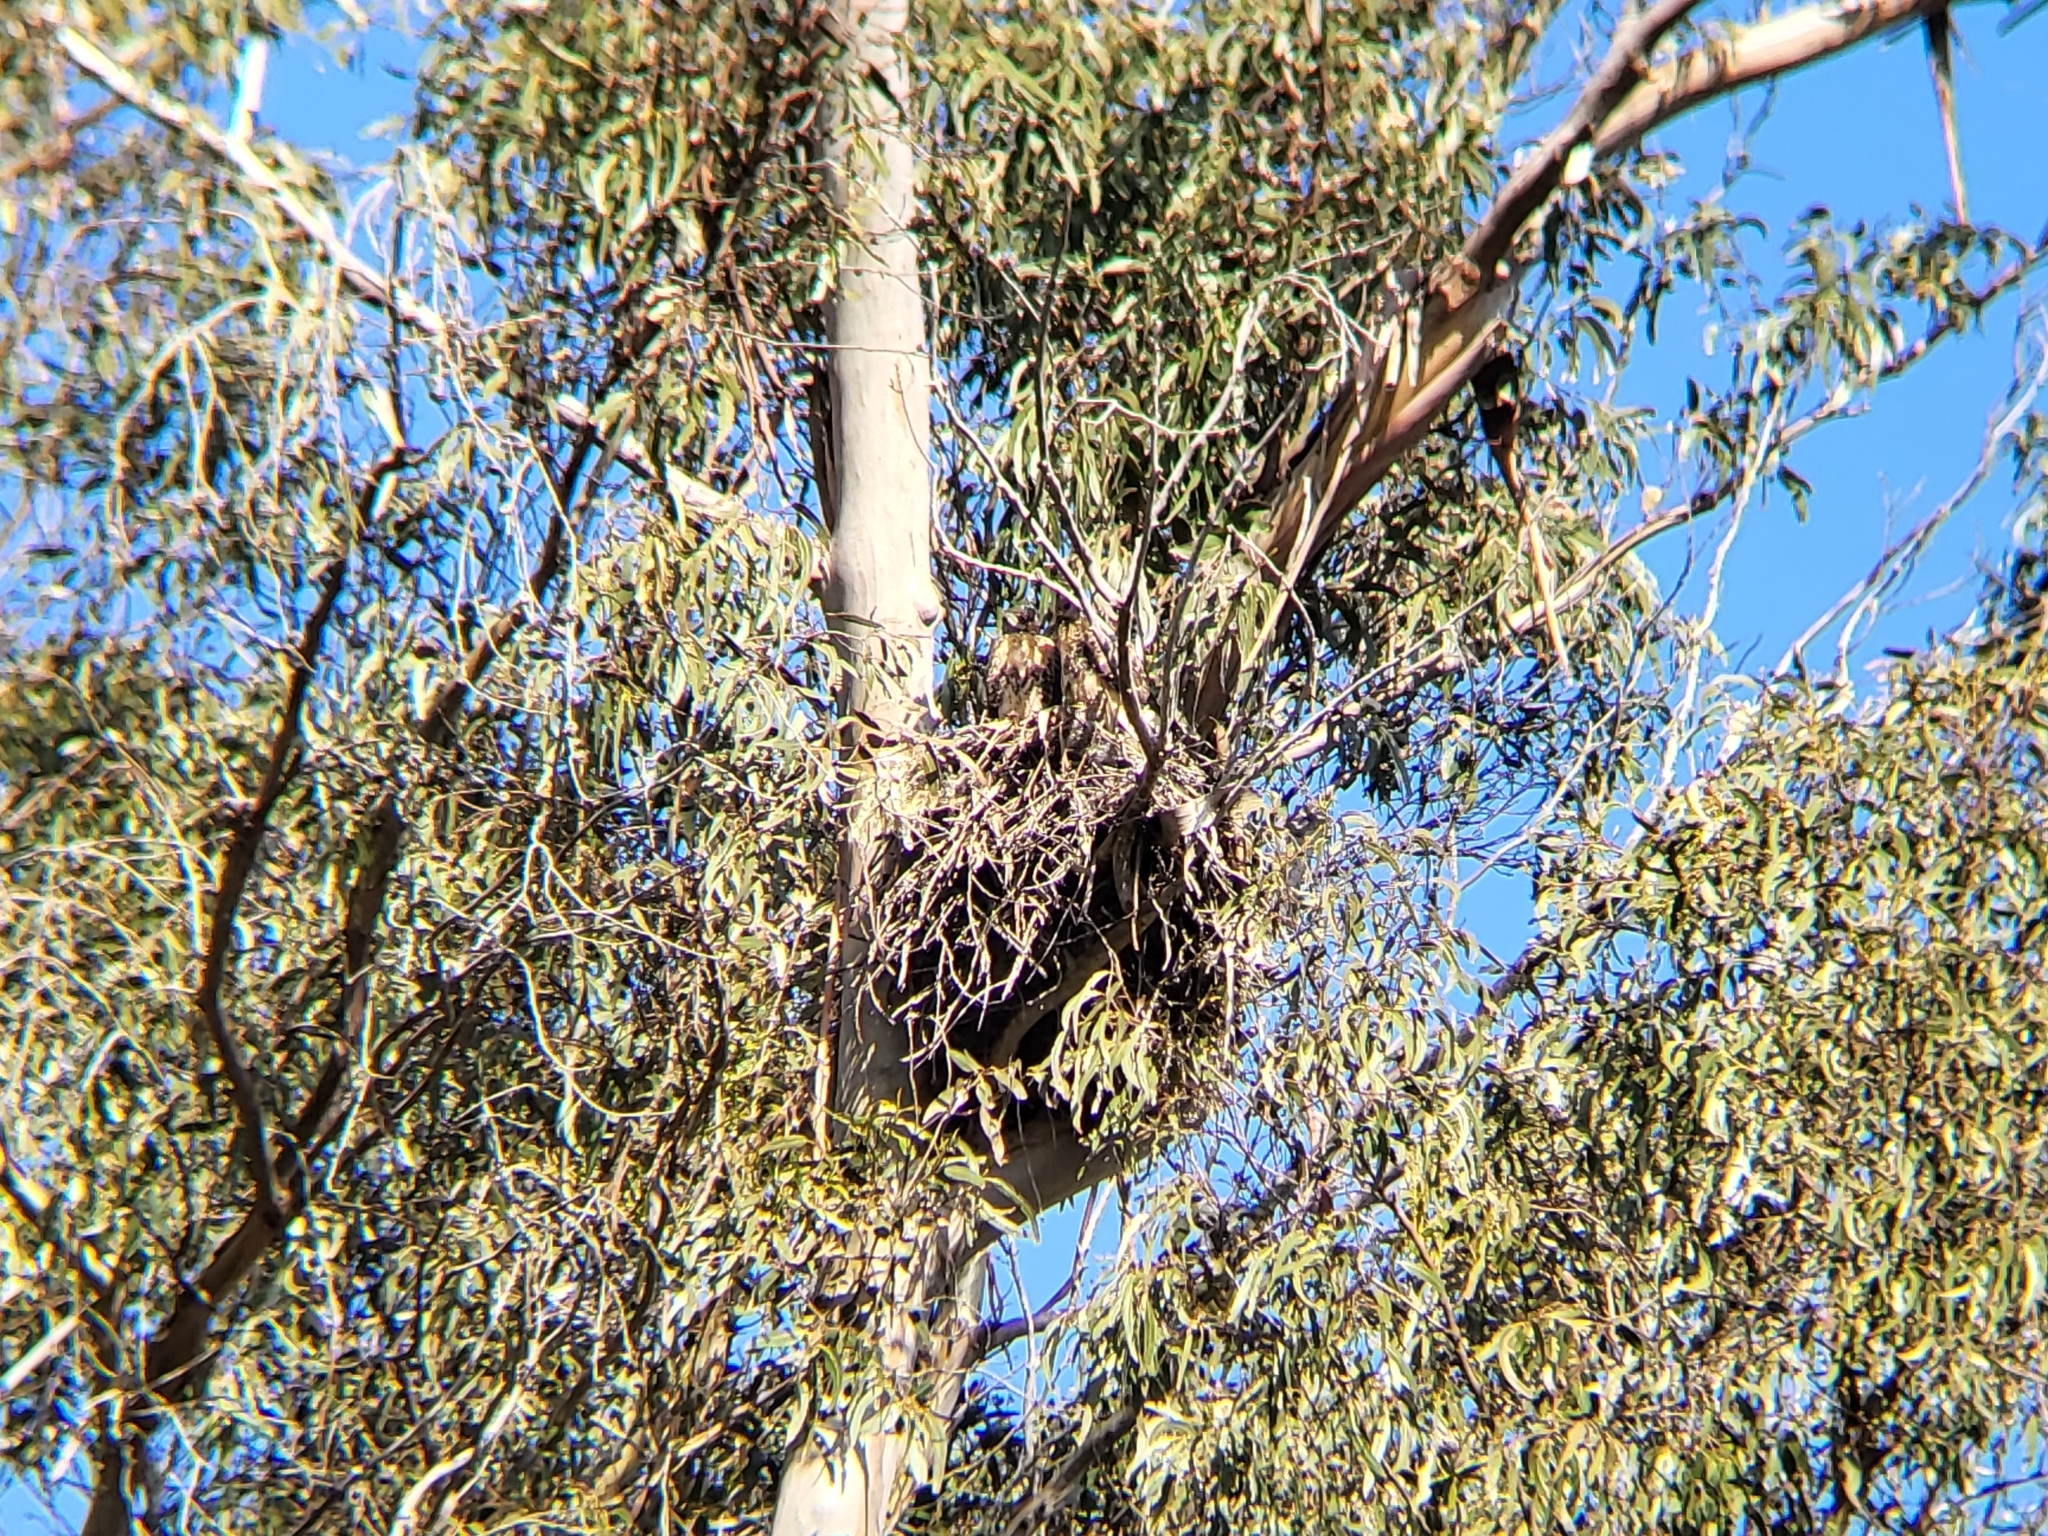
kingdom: Animalia
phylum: Chordata
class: Aves
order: Accipitriformes
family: Accipitridae
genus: Buteo
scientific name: Buteo jamaicensis
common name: Red-tailed hawk
